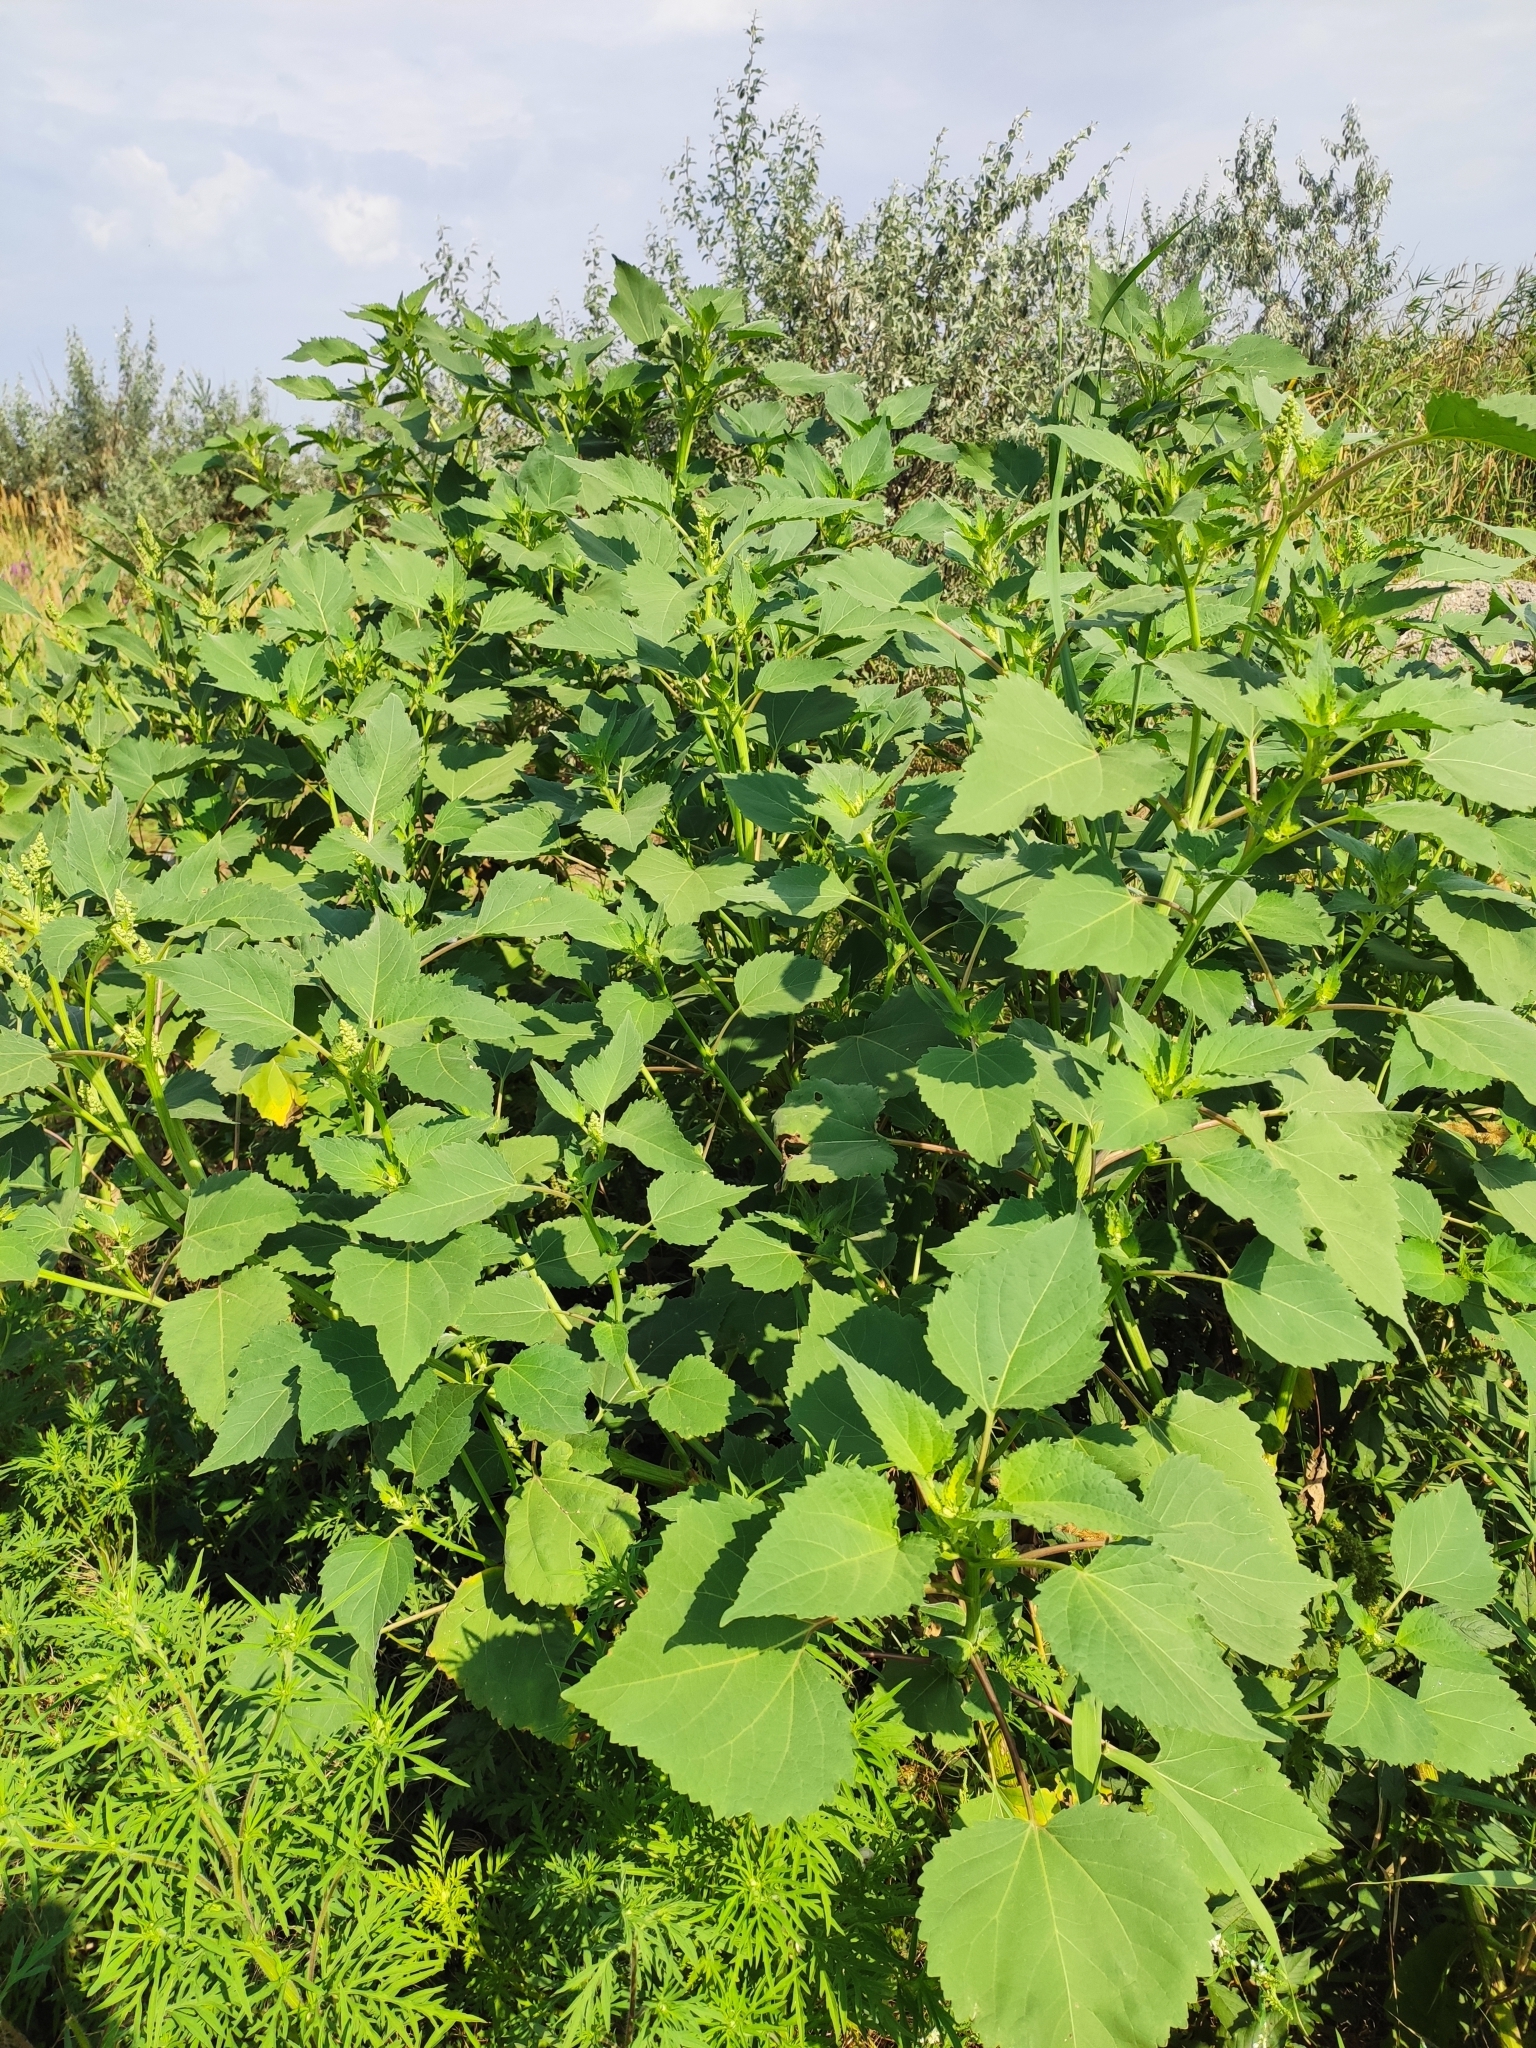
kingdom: Plantae
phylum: Tracheophyta
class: Magnoliopsida
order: Asterales
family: Asteraceae
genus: Cyclachaena
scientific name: Cyclachaena xanthiifolia
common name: Giant sumpweed
